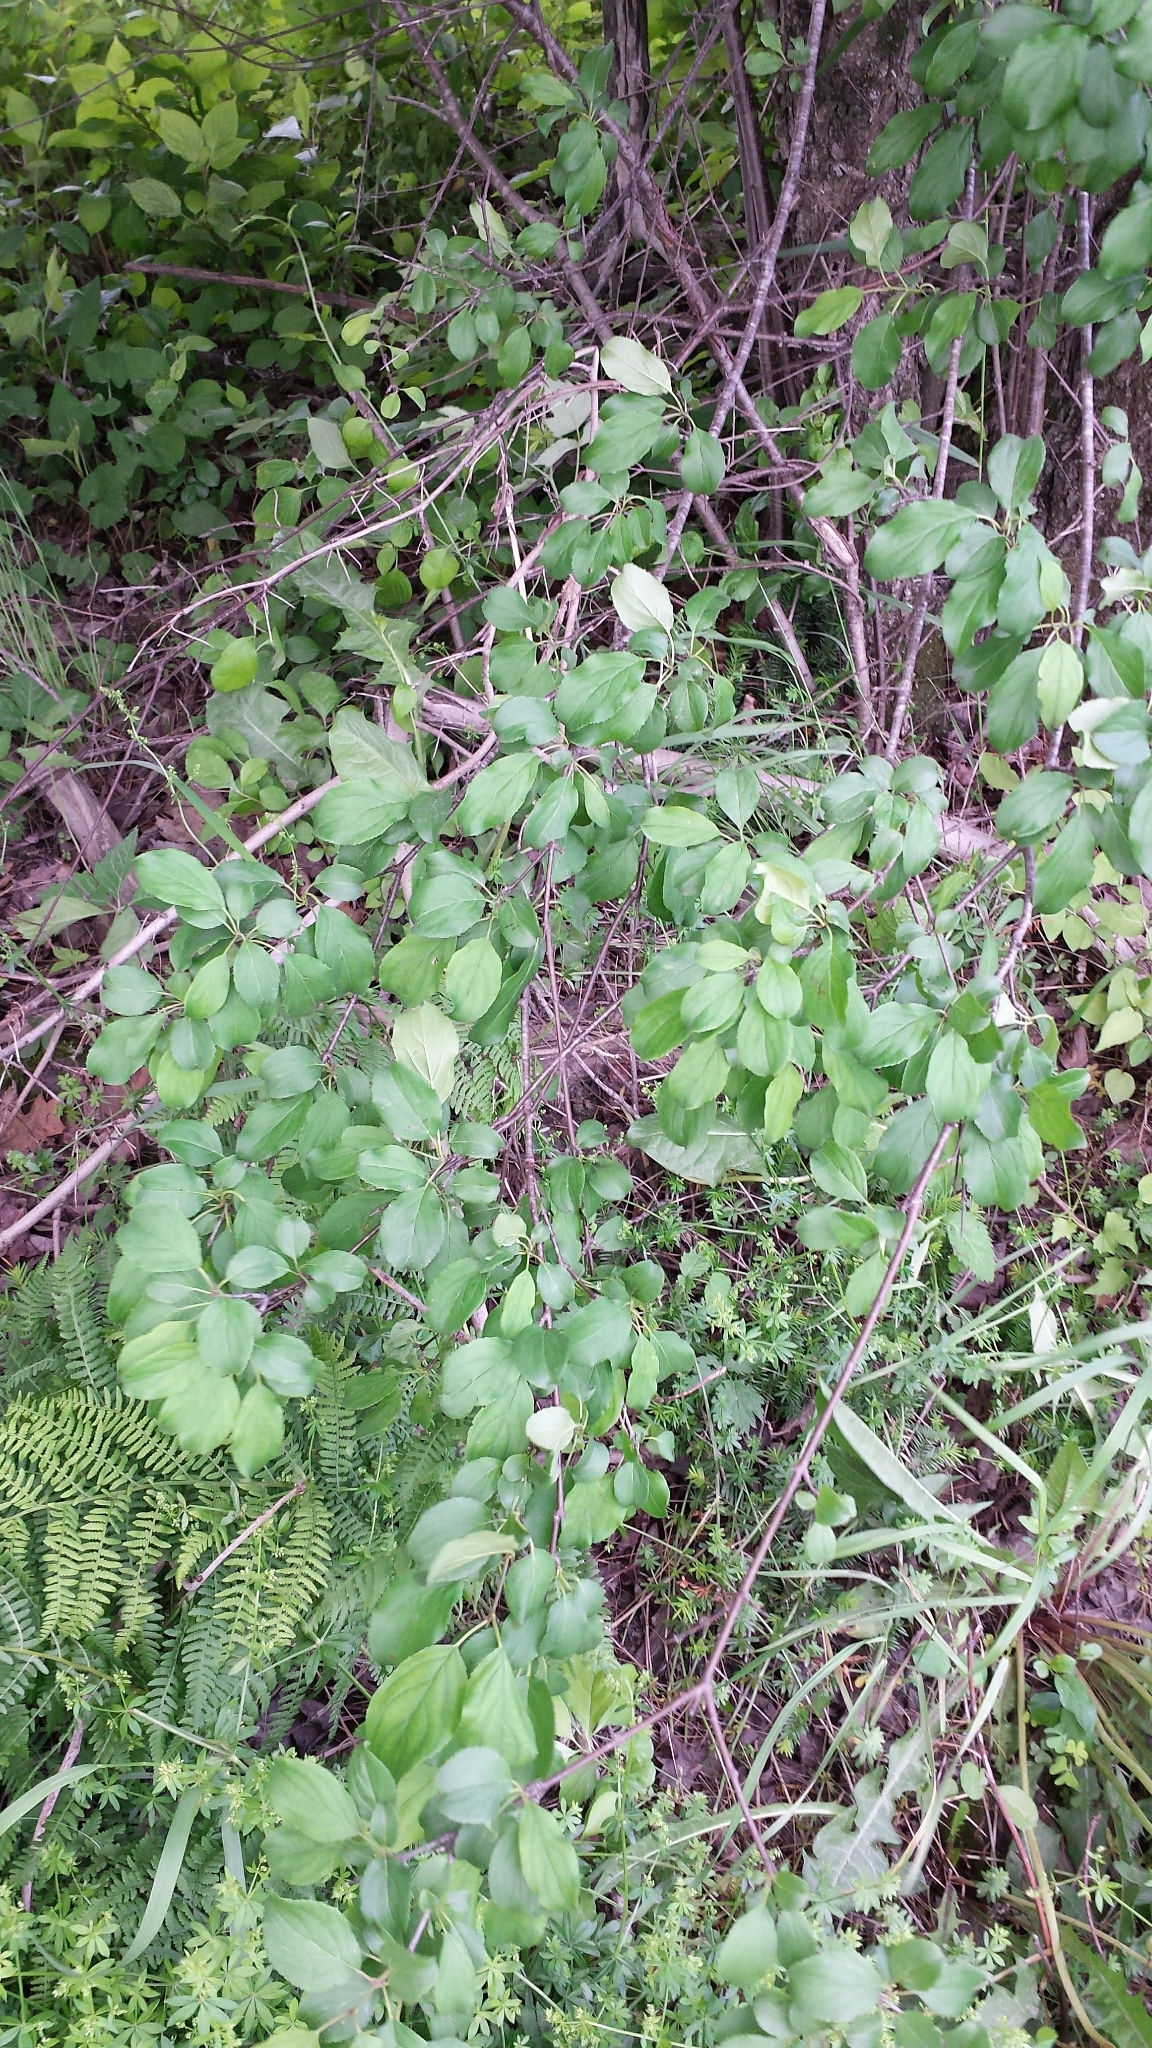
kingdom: Plantae
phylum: Tracheophyta
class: Magnoliopsida
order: Rosales
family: Rhamnaceae
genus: Rhamnus
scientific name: Rhamnus cathartica
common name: Common buckthorn
